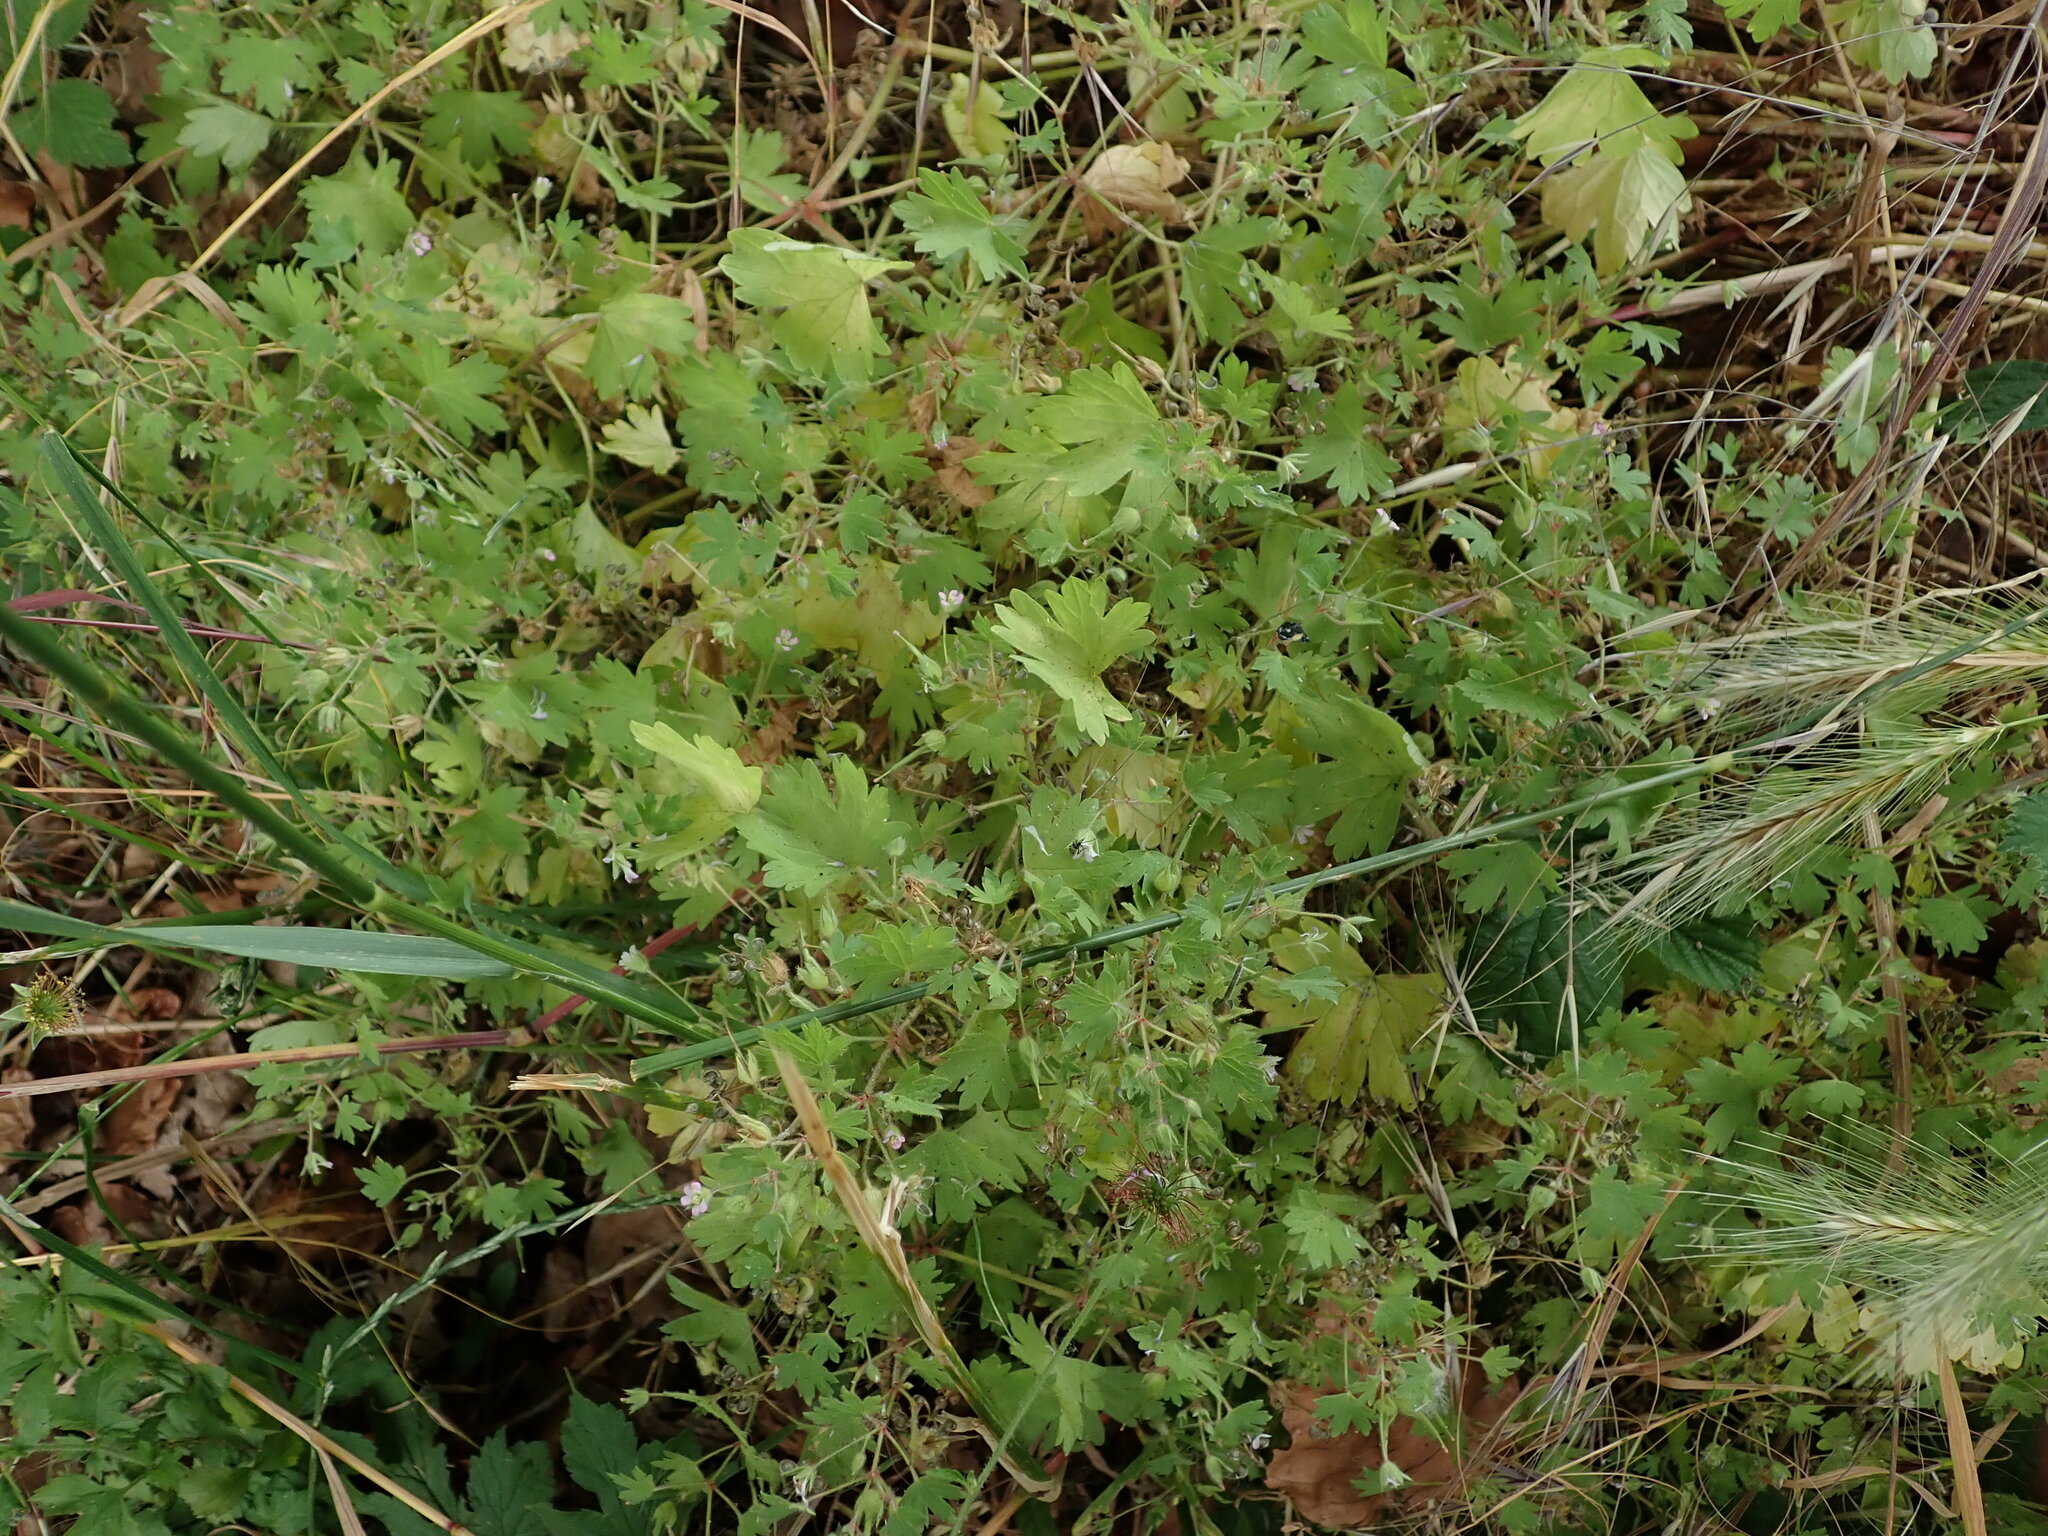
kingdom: Plantae
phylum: Tracheophyta
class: Magnoliopsida
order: Geraniales
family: Geraniaceae
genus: Geranium
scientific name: Geranium rotundifolium
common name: Round-leaved crane's-bill
